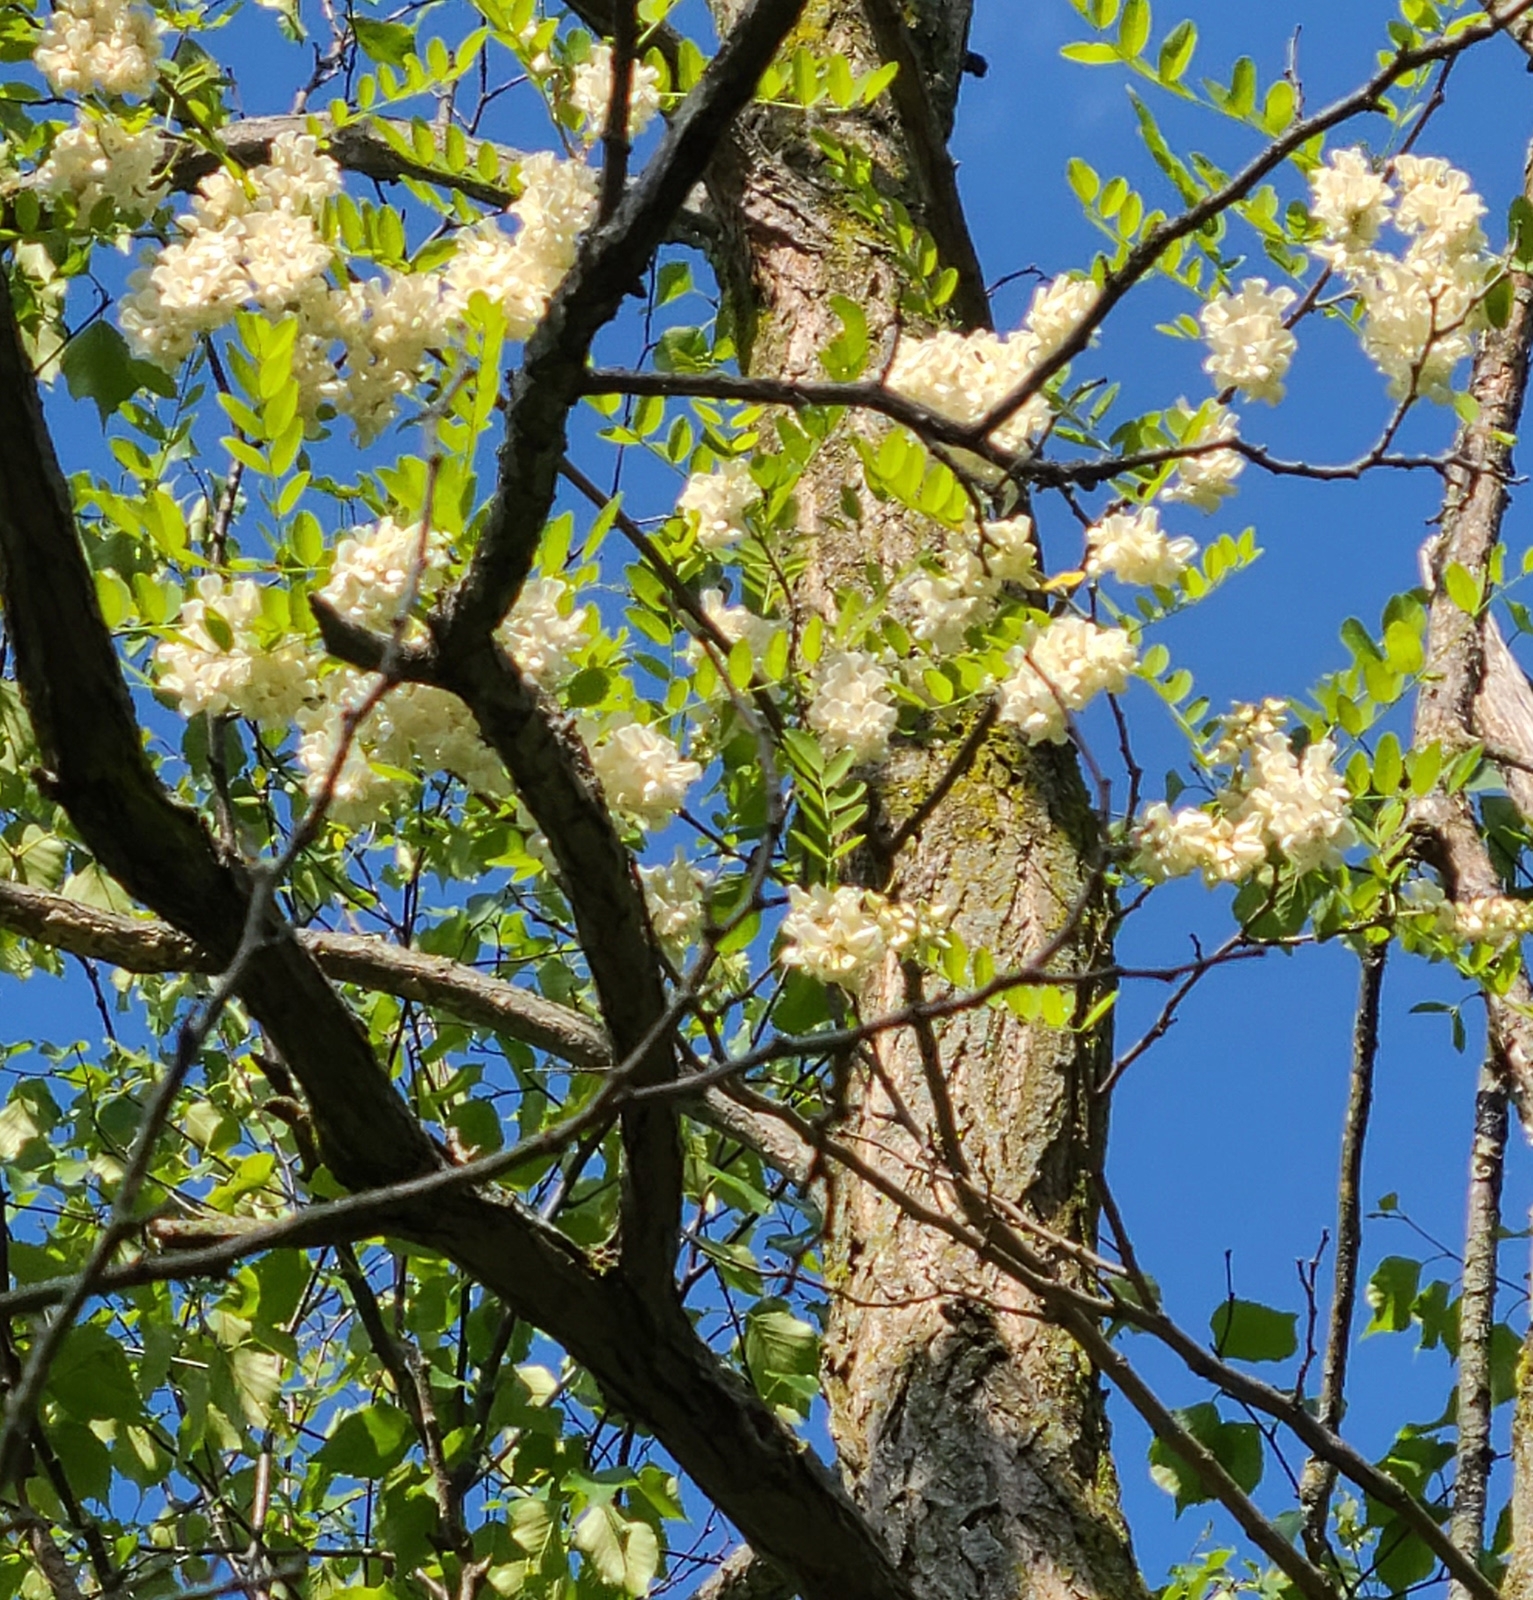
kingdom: Plantae
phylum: Tracheophyta
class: Magnoliopsida
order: Fabales
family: Fabaceae
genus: Robinia
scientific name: Robinia pseudoacacia
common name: Black locust
